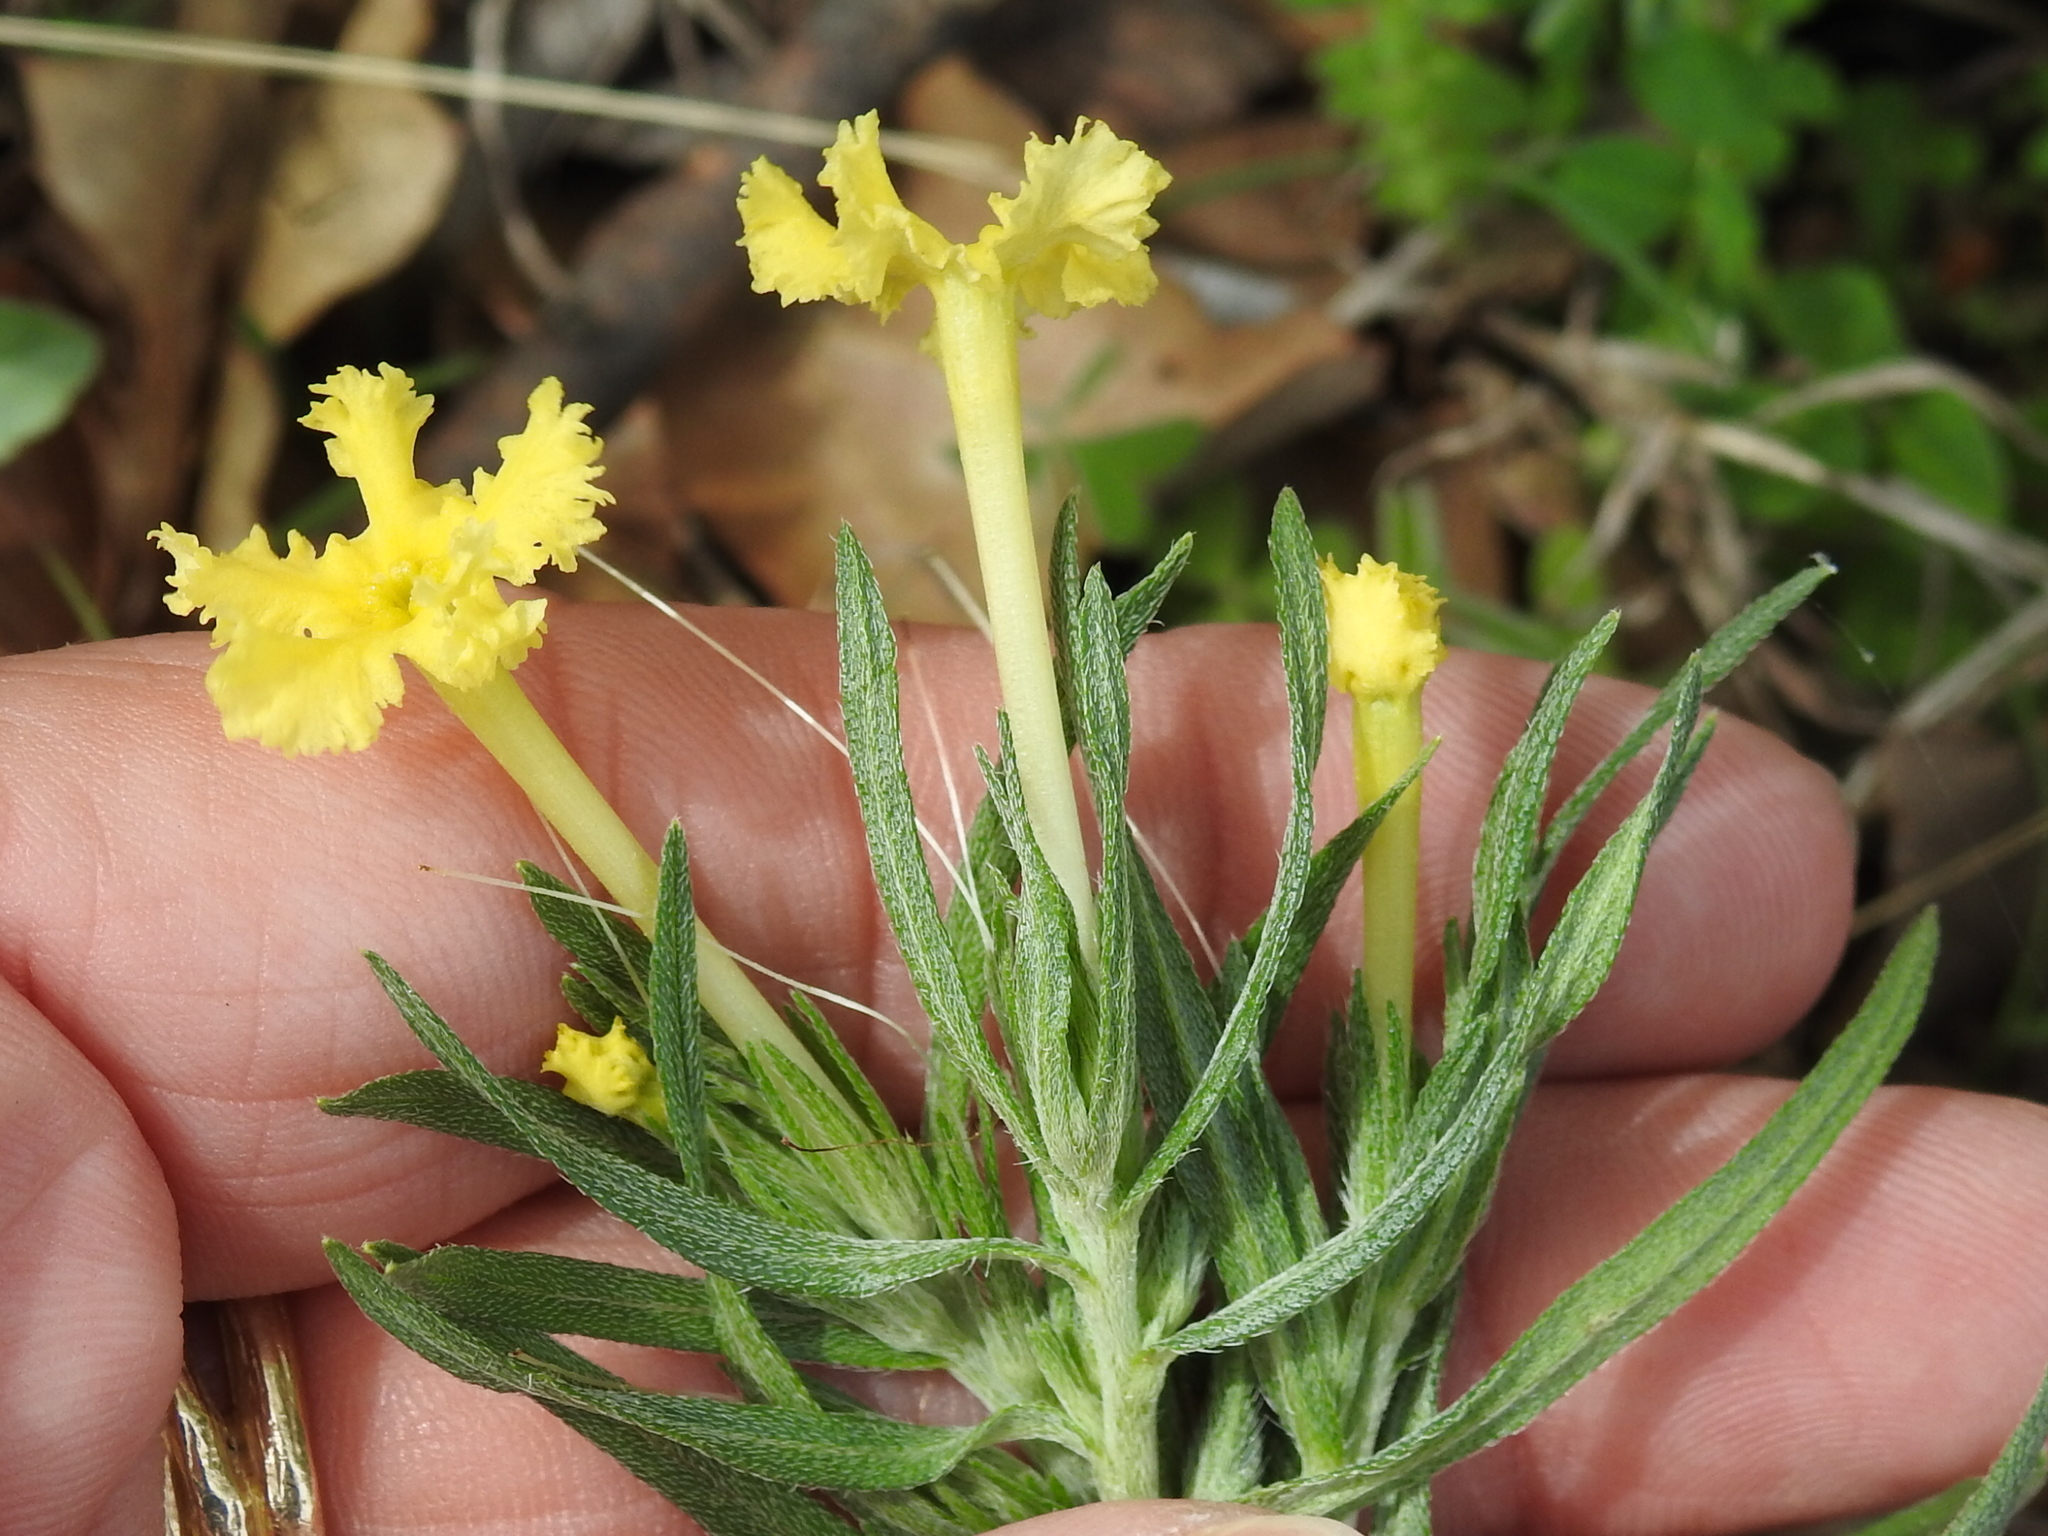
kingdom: Plantae
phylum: Tracheophyta
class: Magnoliopsida
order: Boraginales
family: Boraginaceae
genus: Lithospermum
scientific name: Lithospermum incisum
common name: Fringed gromwell
